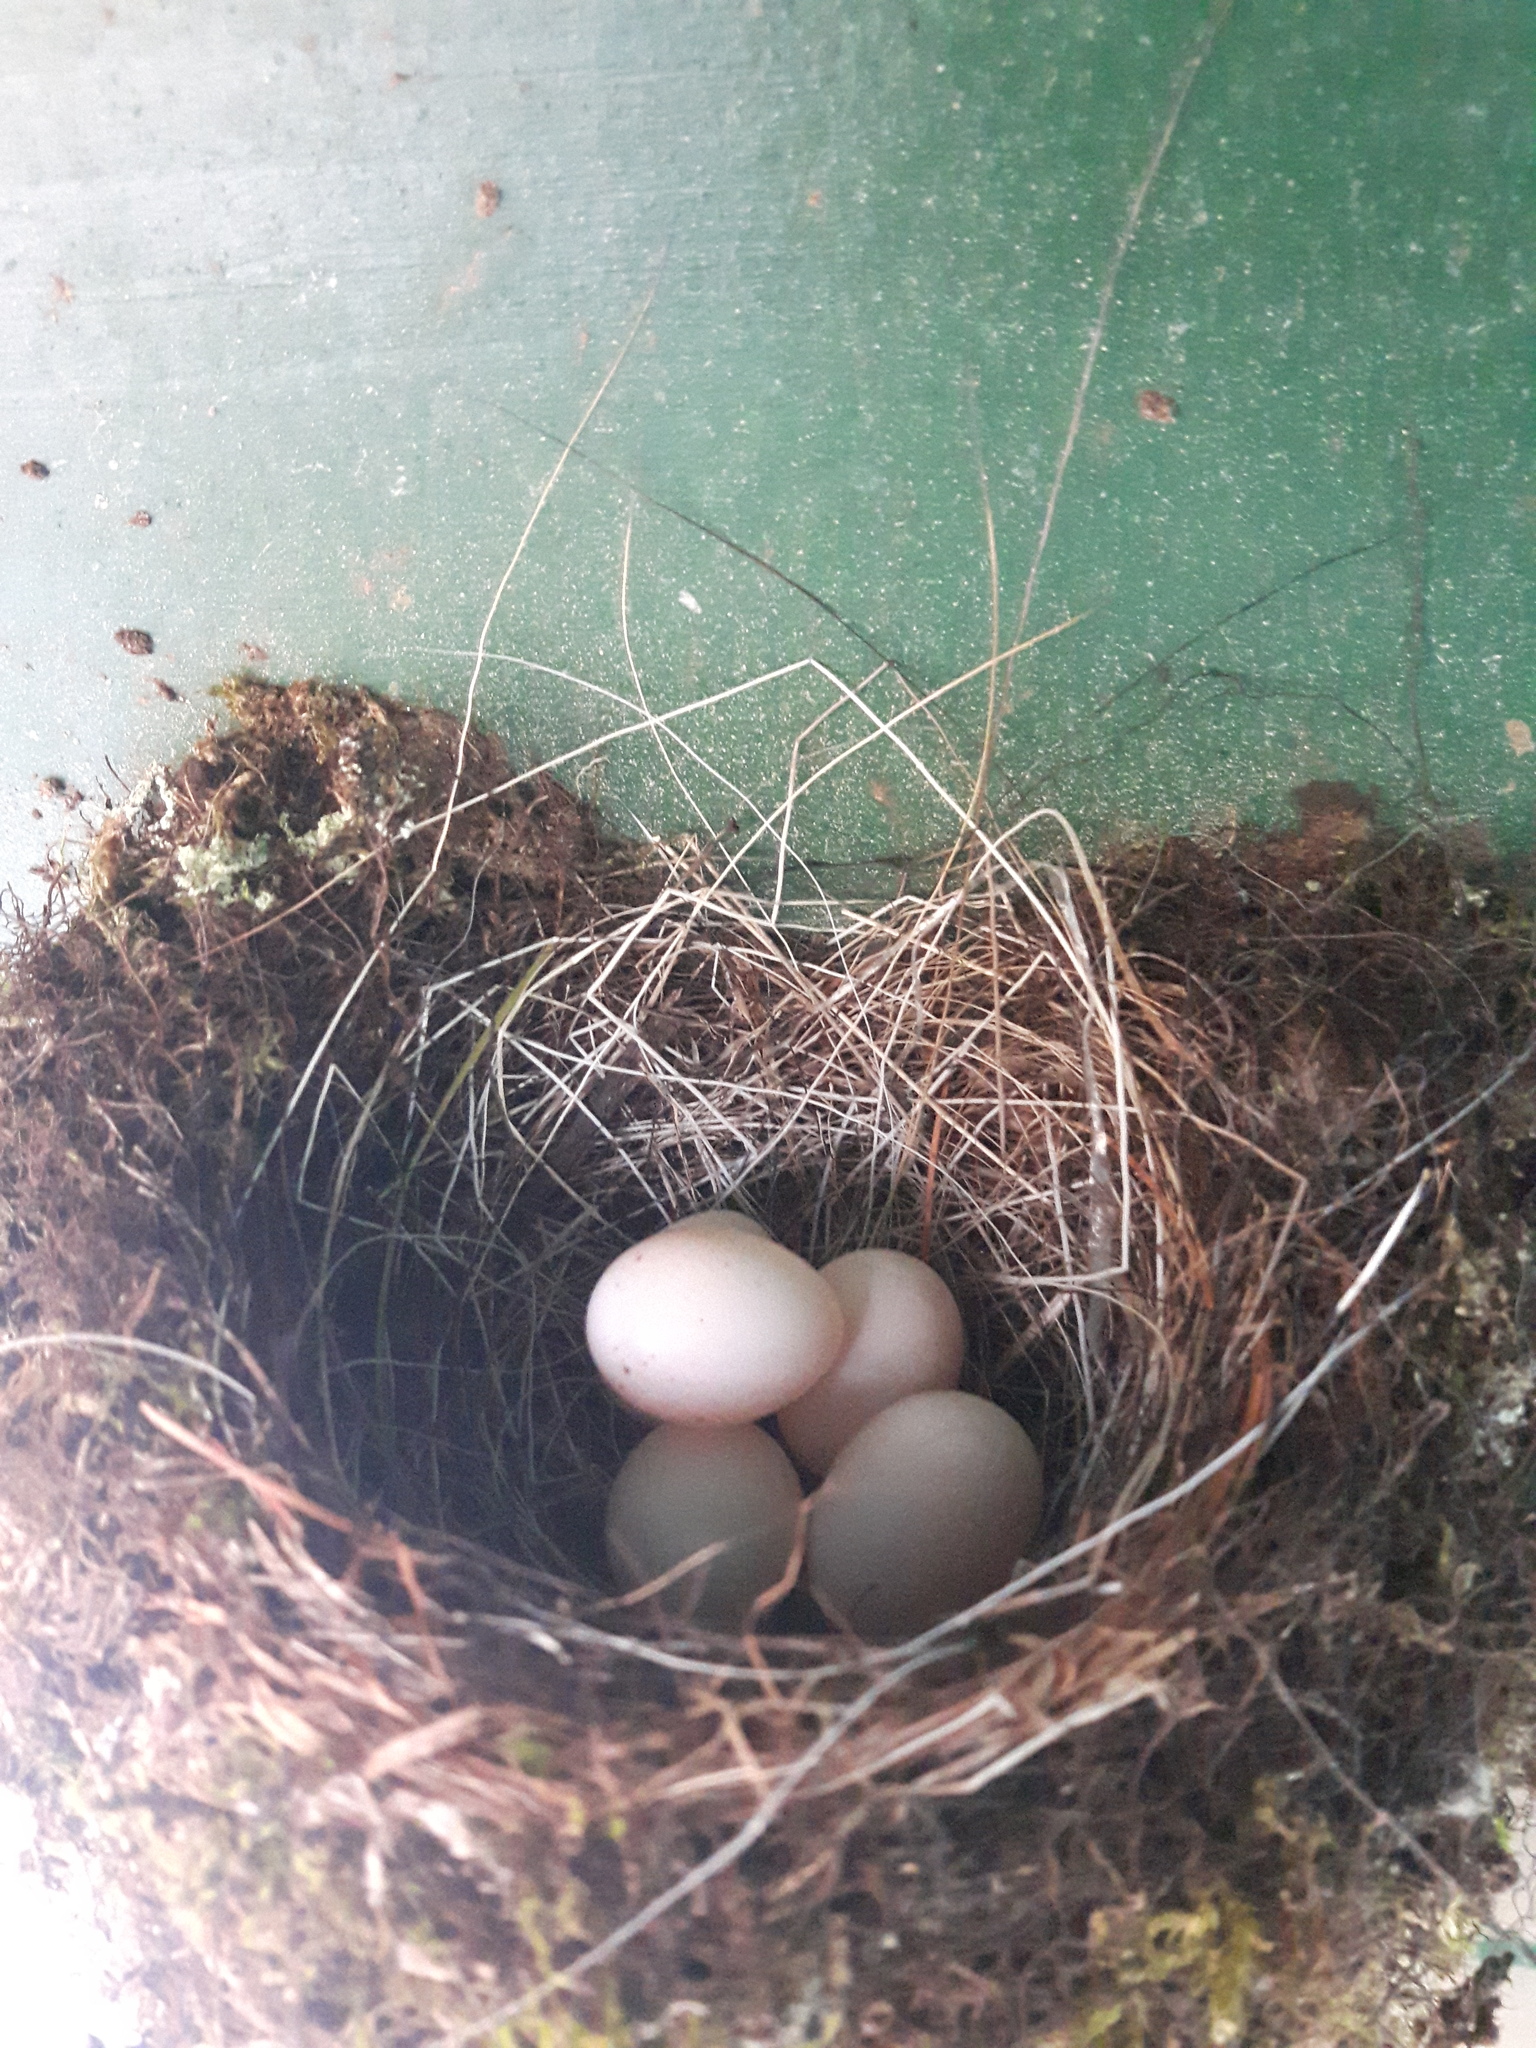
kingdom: Animalia
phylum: Chordata
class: Aves
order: Passeriformes
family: Tyrannidae
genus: Sayornis
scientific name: Sayornis phoebe
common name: Eastern phoebe
